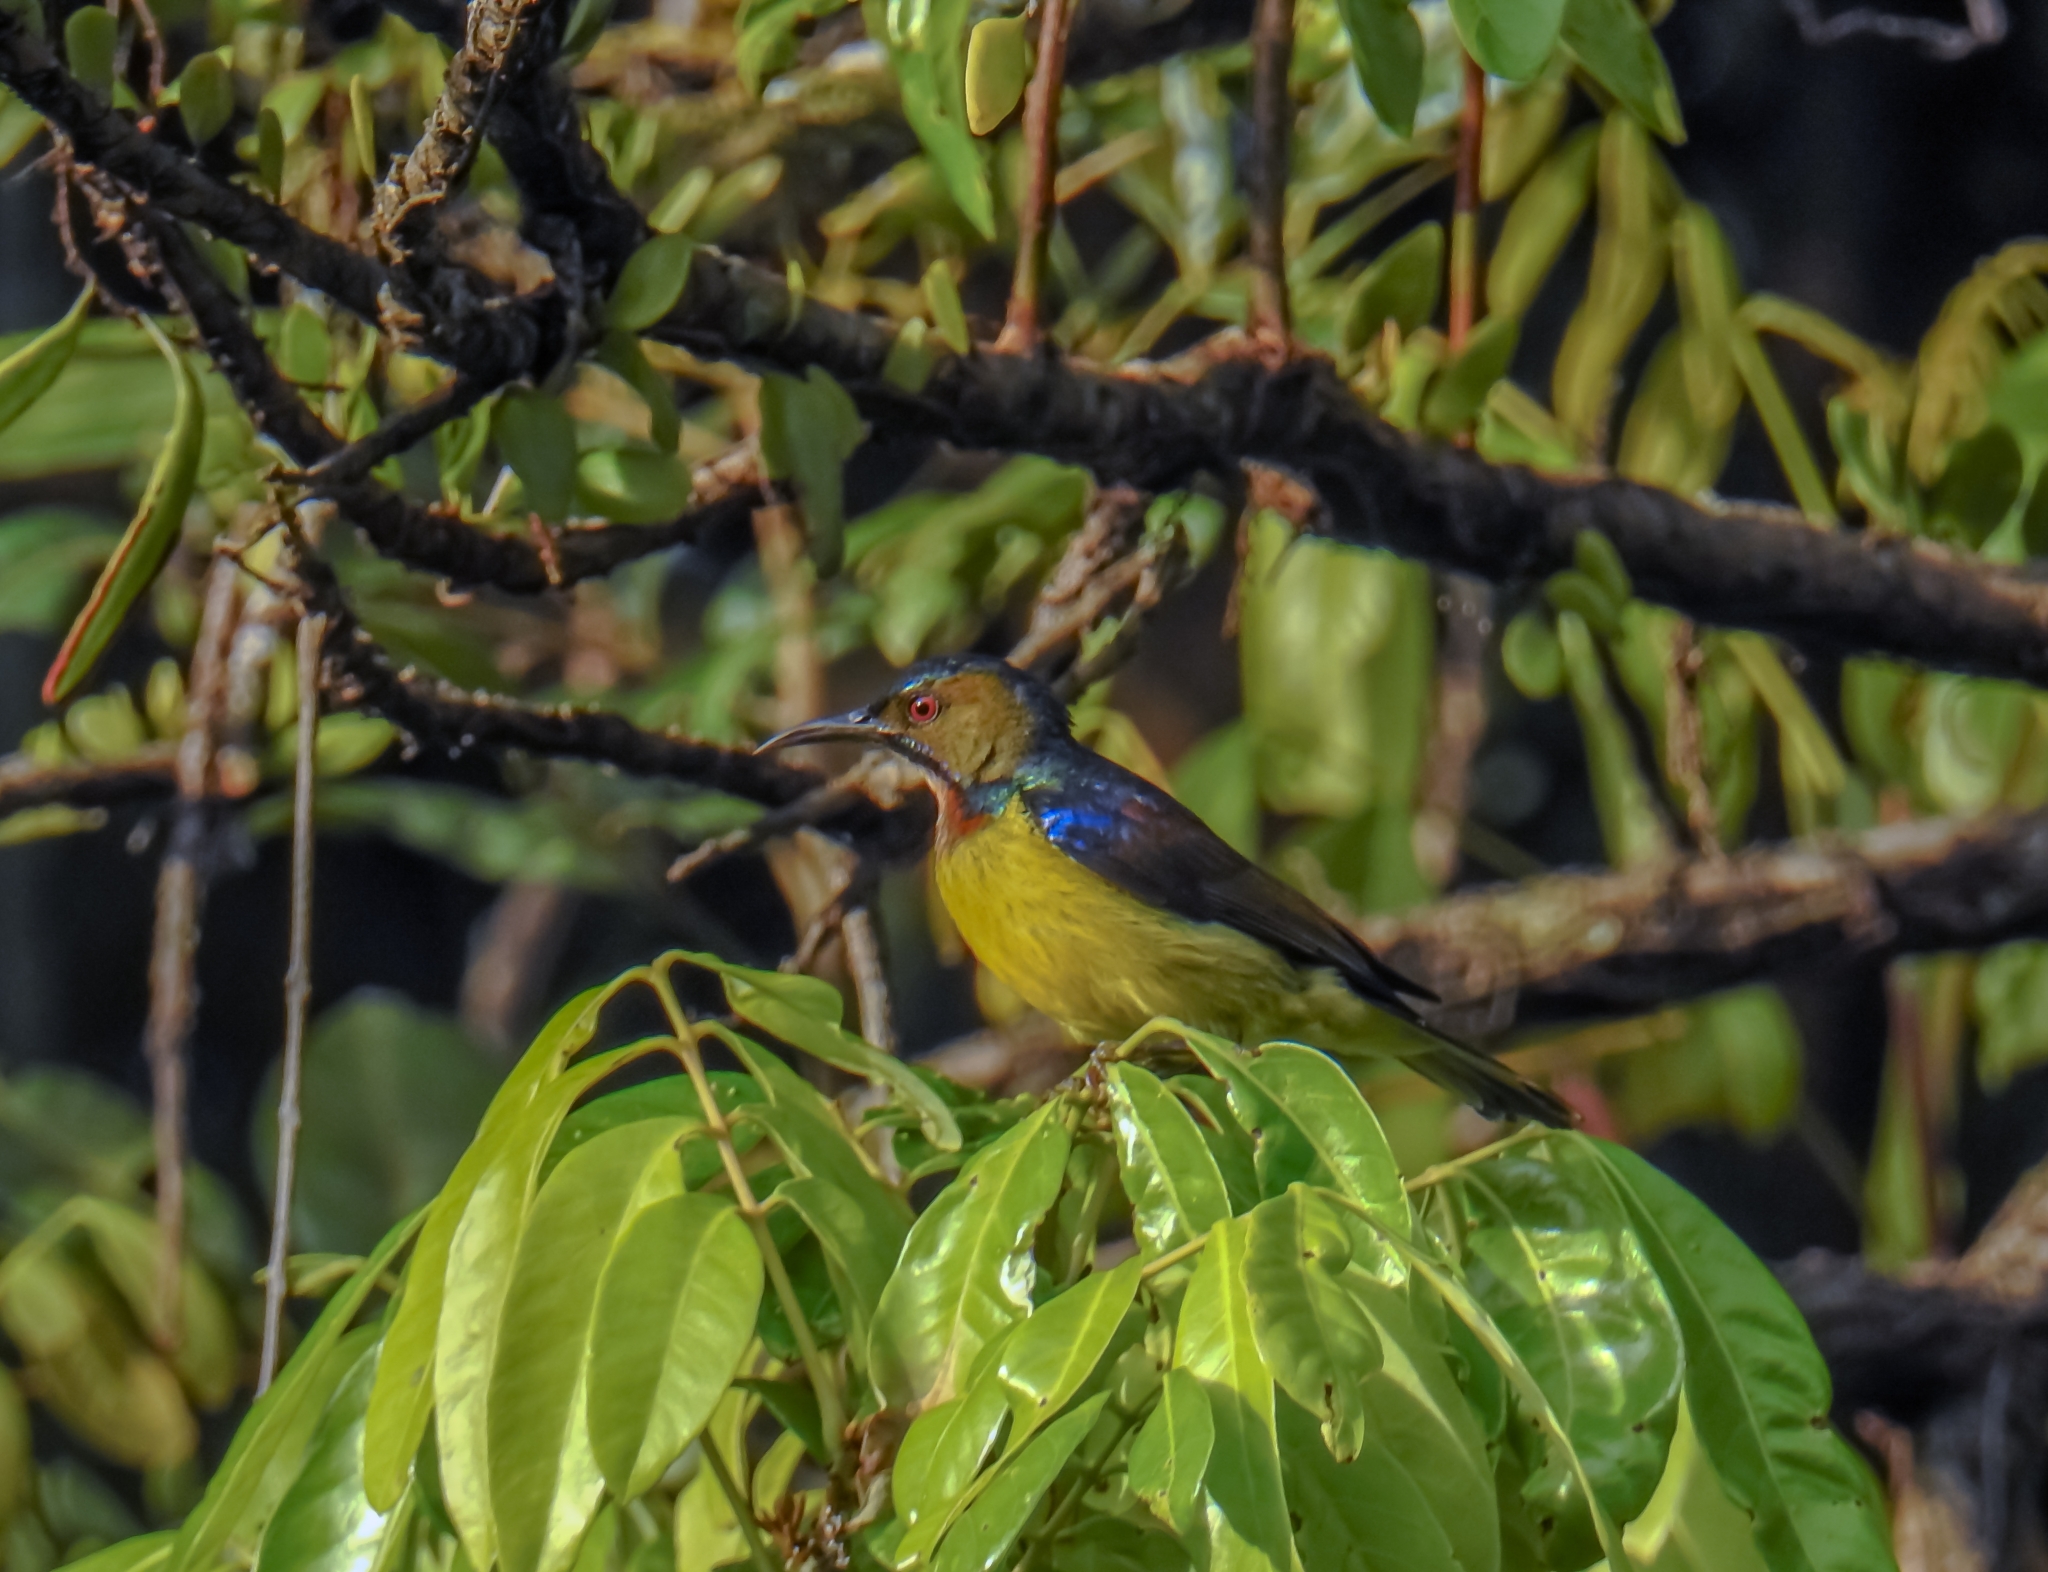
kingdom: Animalia
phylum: Chordata
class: Aves
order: Passeriformes
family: Nectariniidae
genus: Anthreptes
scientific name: Anthreptes malacensis
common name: Brown-throated sunbird
